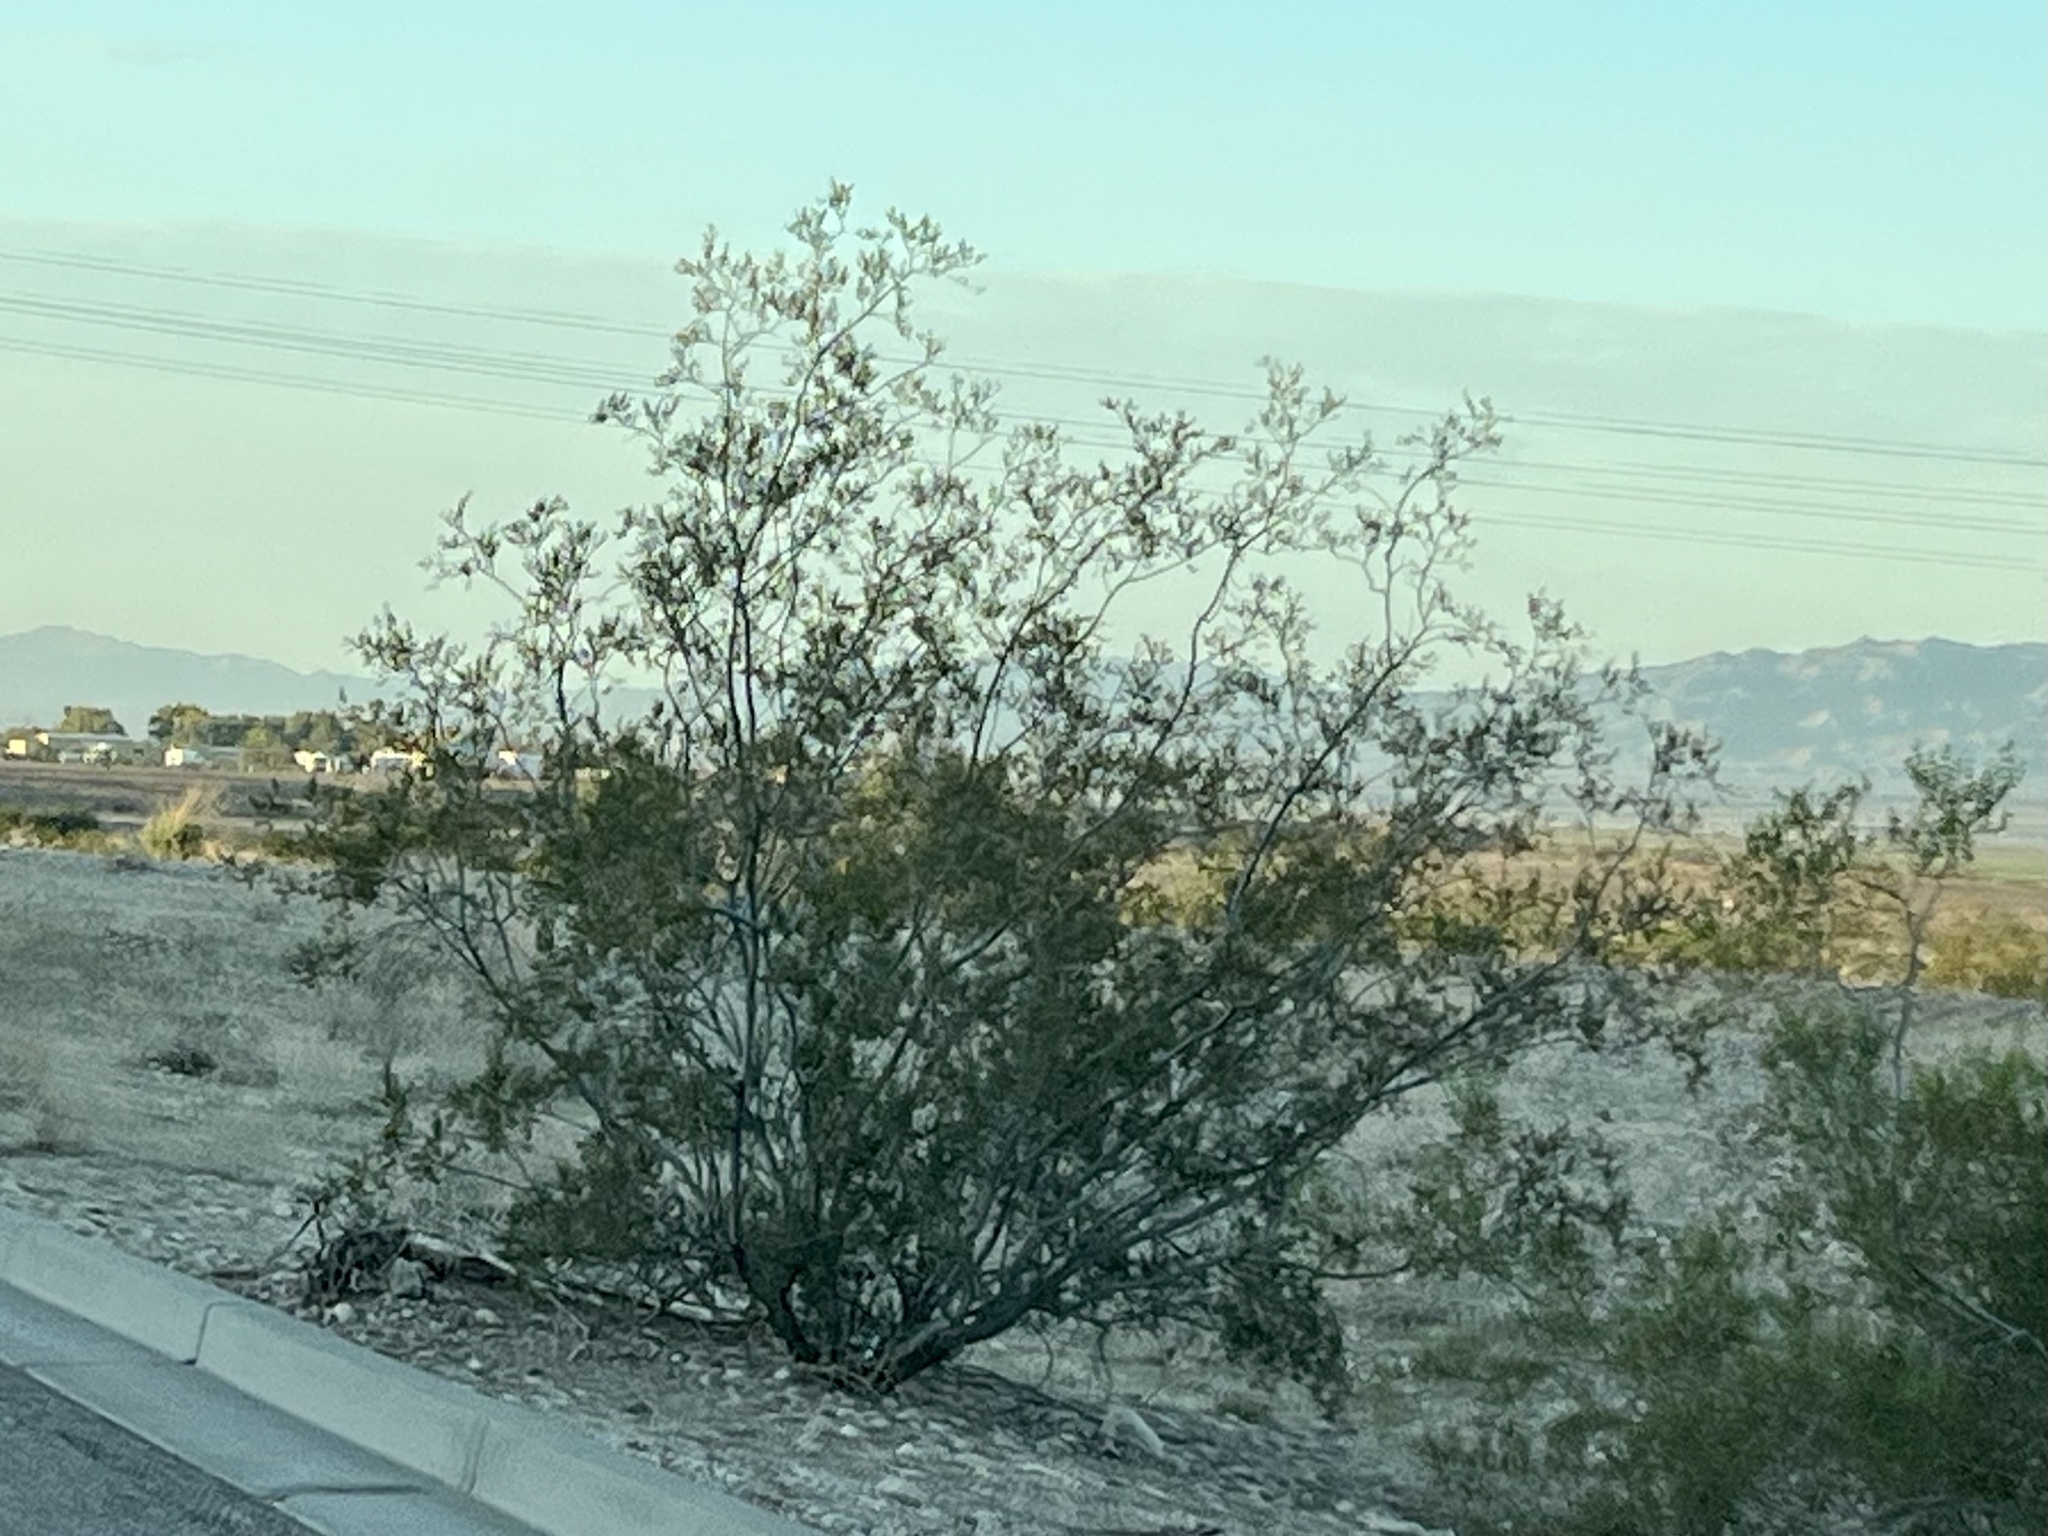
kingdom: Plantae
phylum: Tracheophyta
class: Magnoliopsida
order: Zygophyllales
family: Zygophyllaceae
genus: Larrea
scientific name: Larrea tridentata
